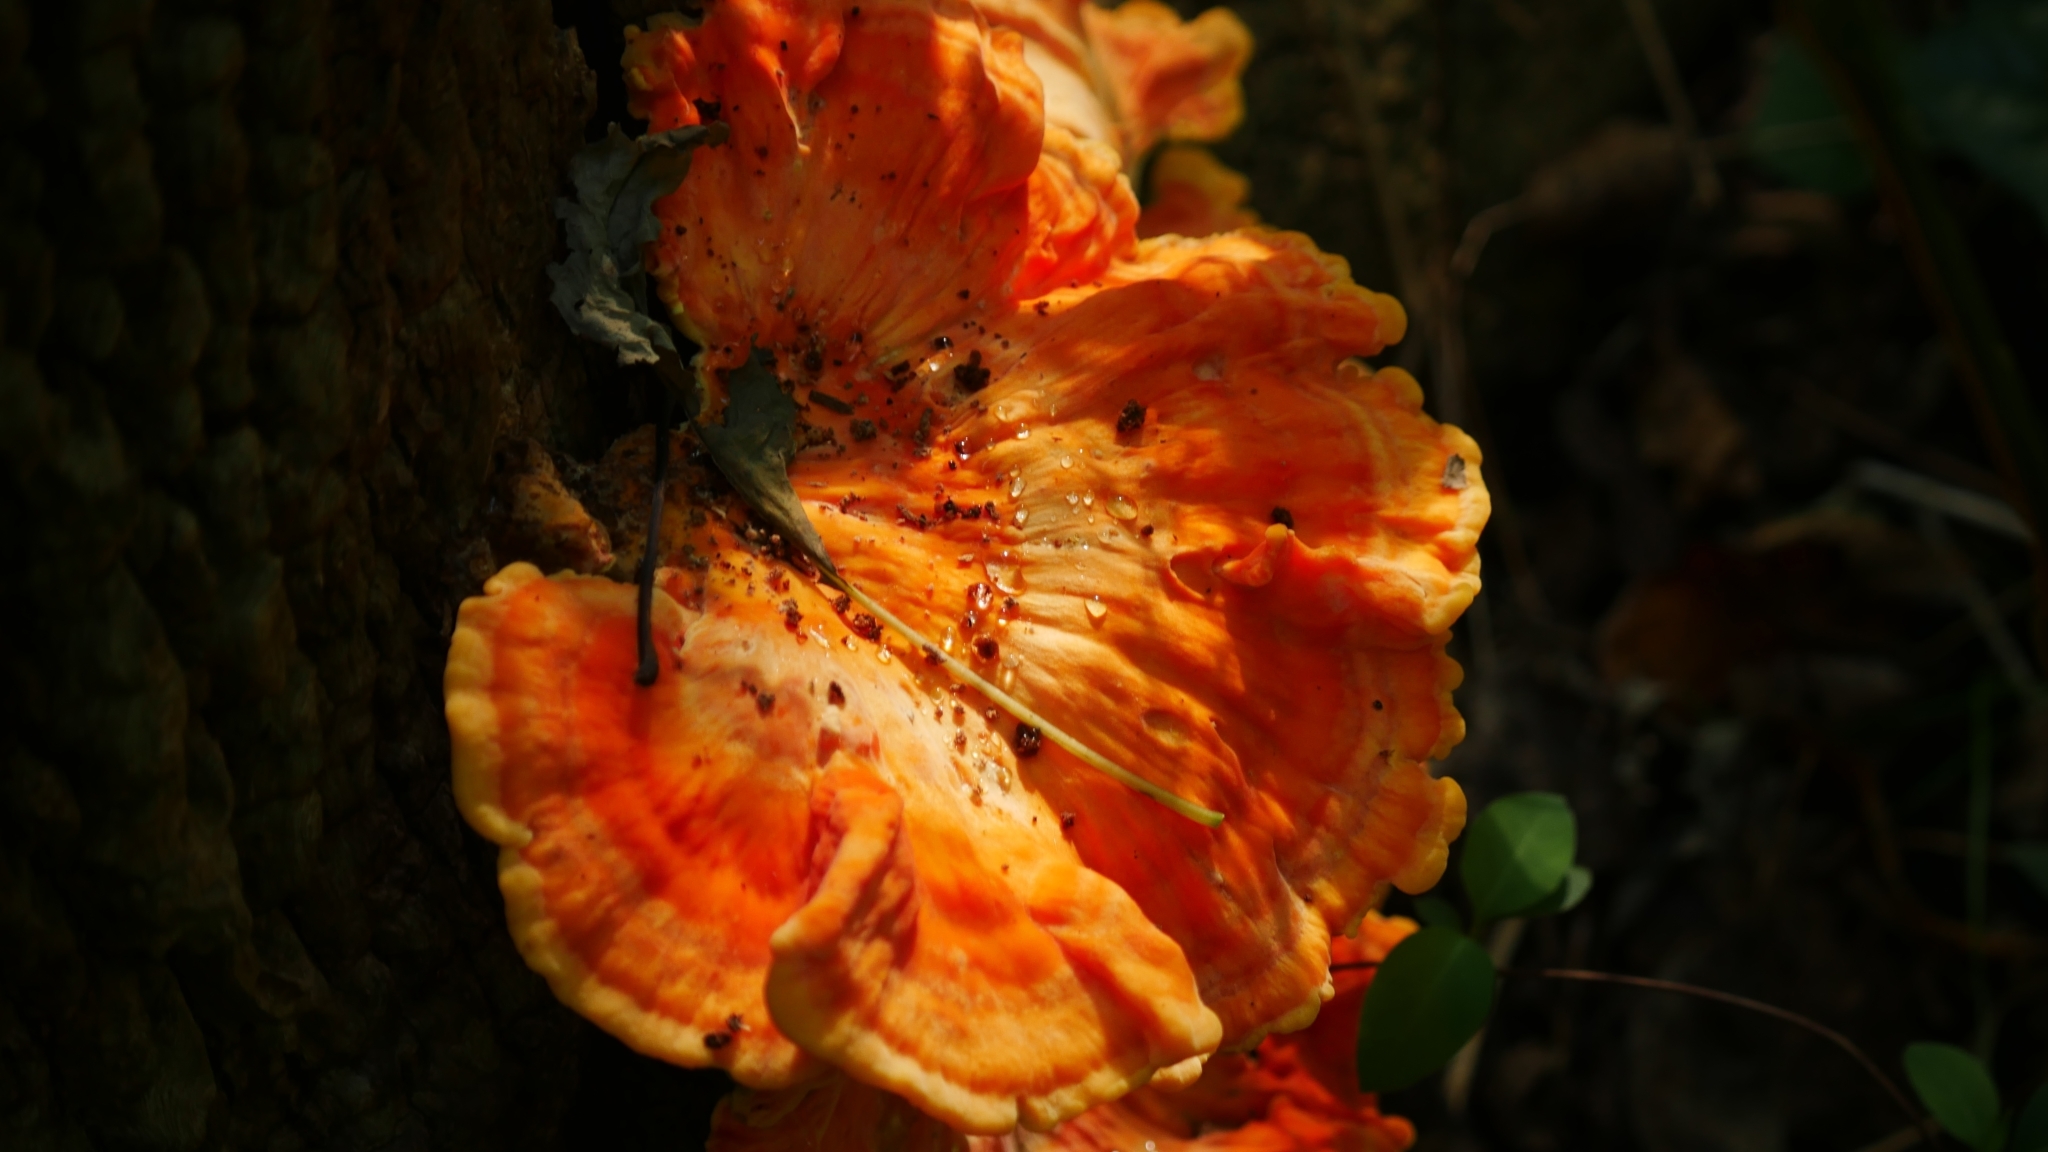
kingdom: Fungi
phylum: Basidiomycota
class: Agaricomycetes
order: Polyporales
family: Laetiporaceae
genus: Laetiporus
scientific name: Laetiporus sulphureus
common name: Chicken of the woods
